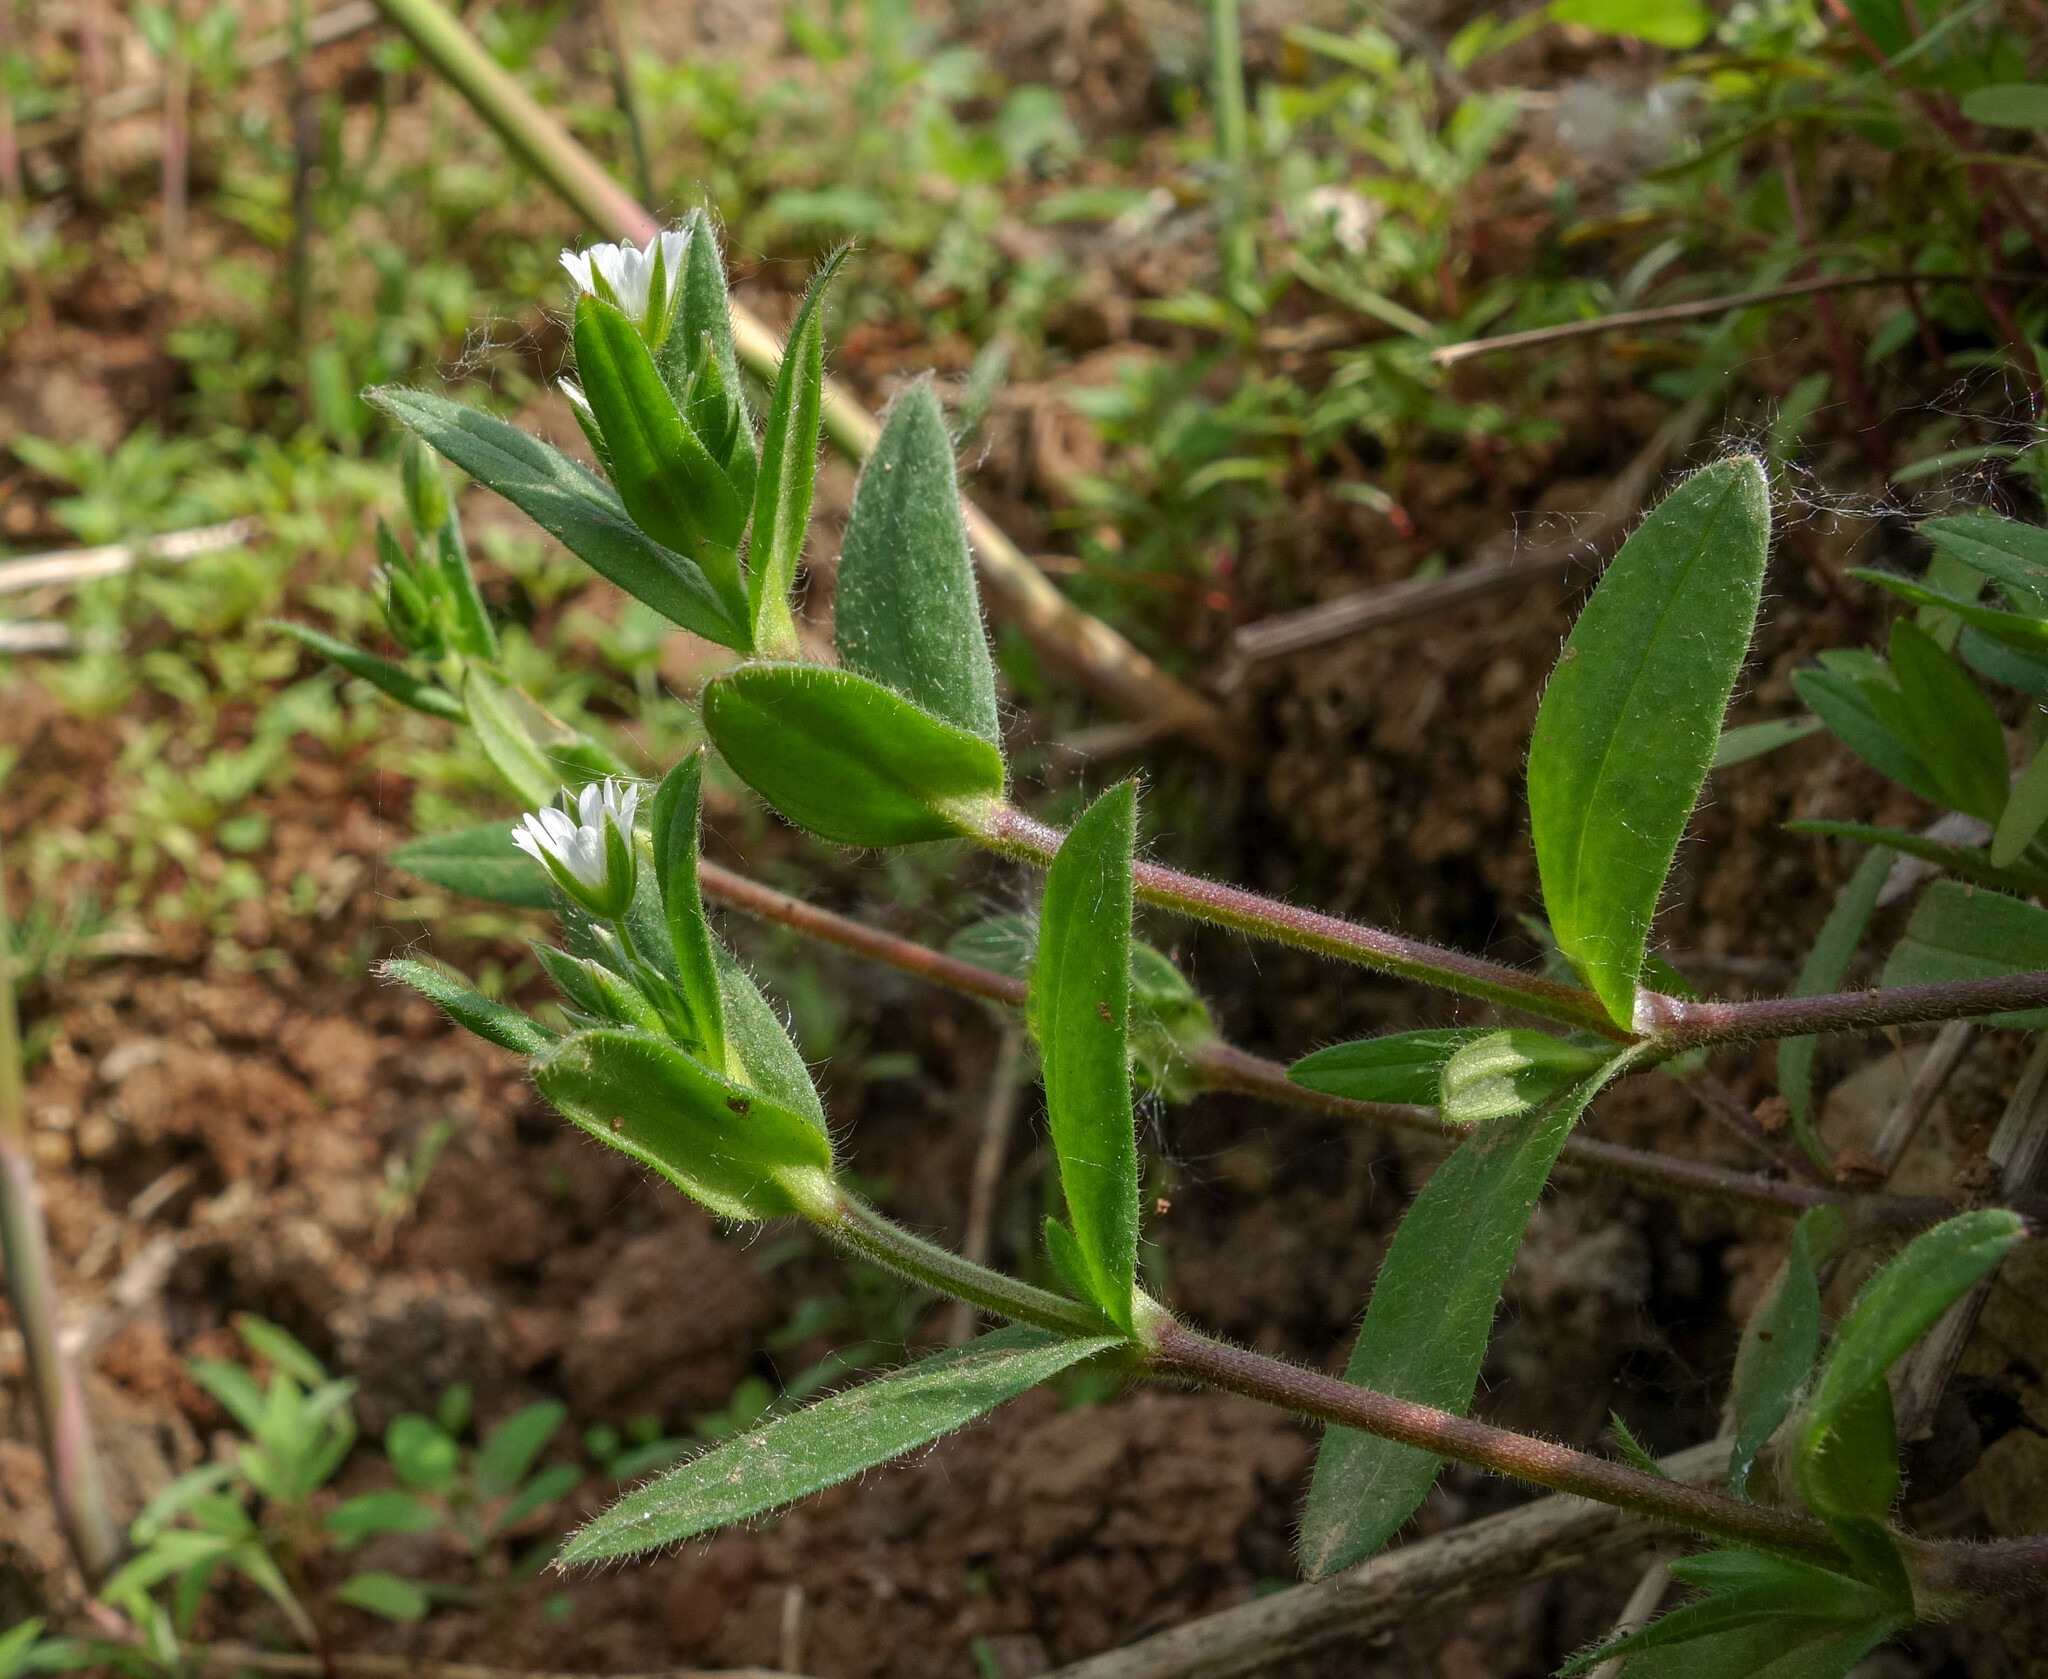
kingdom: Plantae
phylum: Tracheophyta
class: Magnoliopsida
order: Caryophyllales
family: Caryophyllaceae
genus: Cerastium
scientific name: Cerastium holosteoides
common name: Big chickweed
